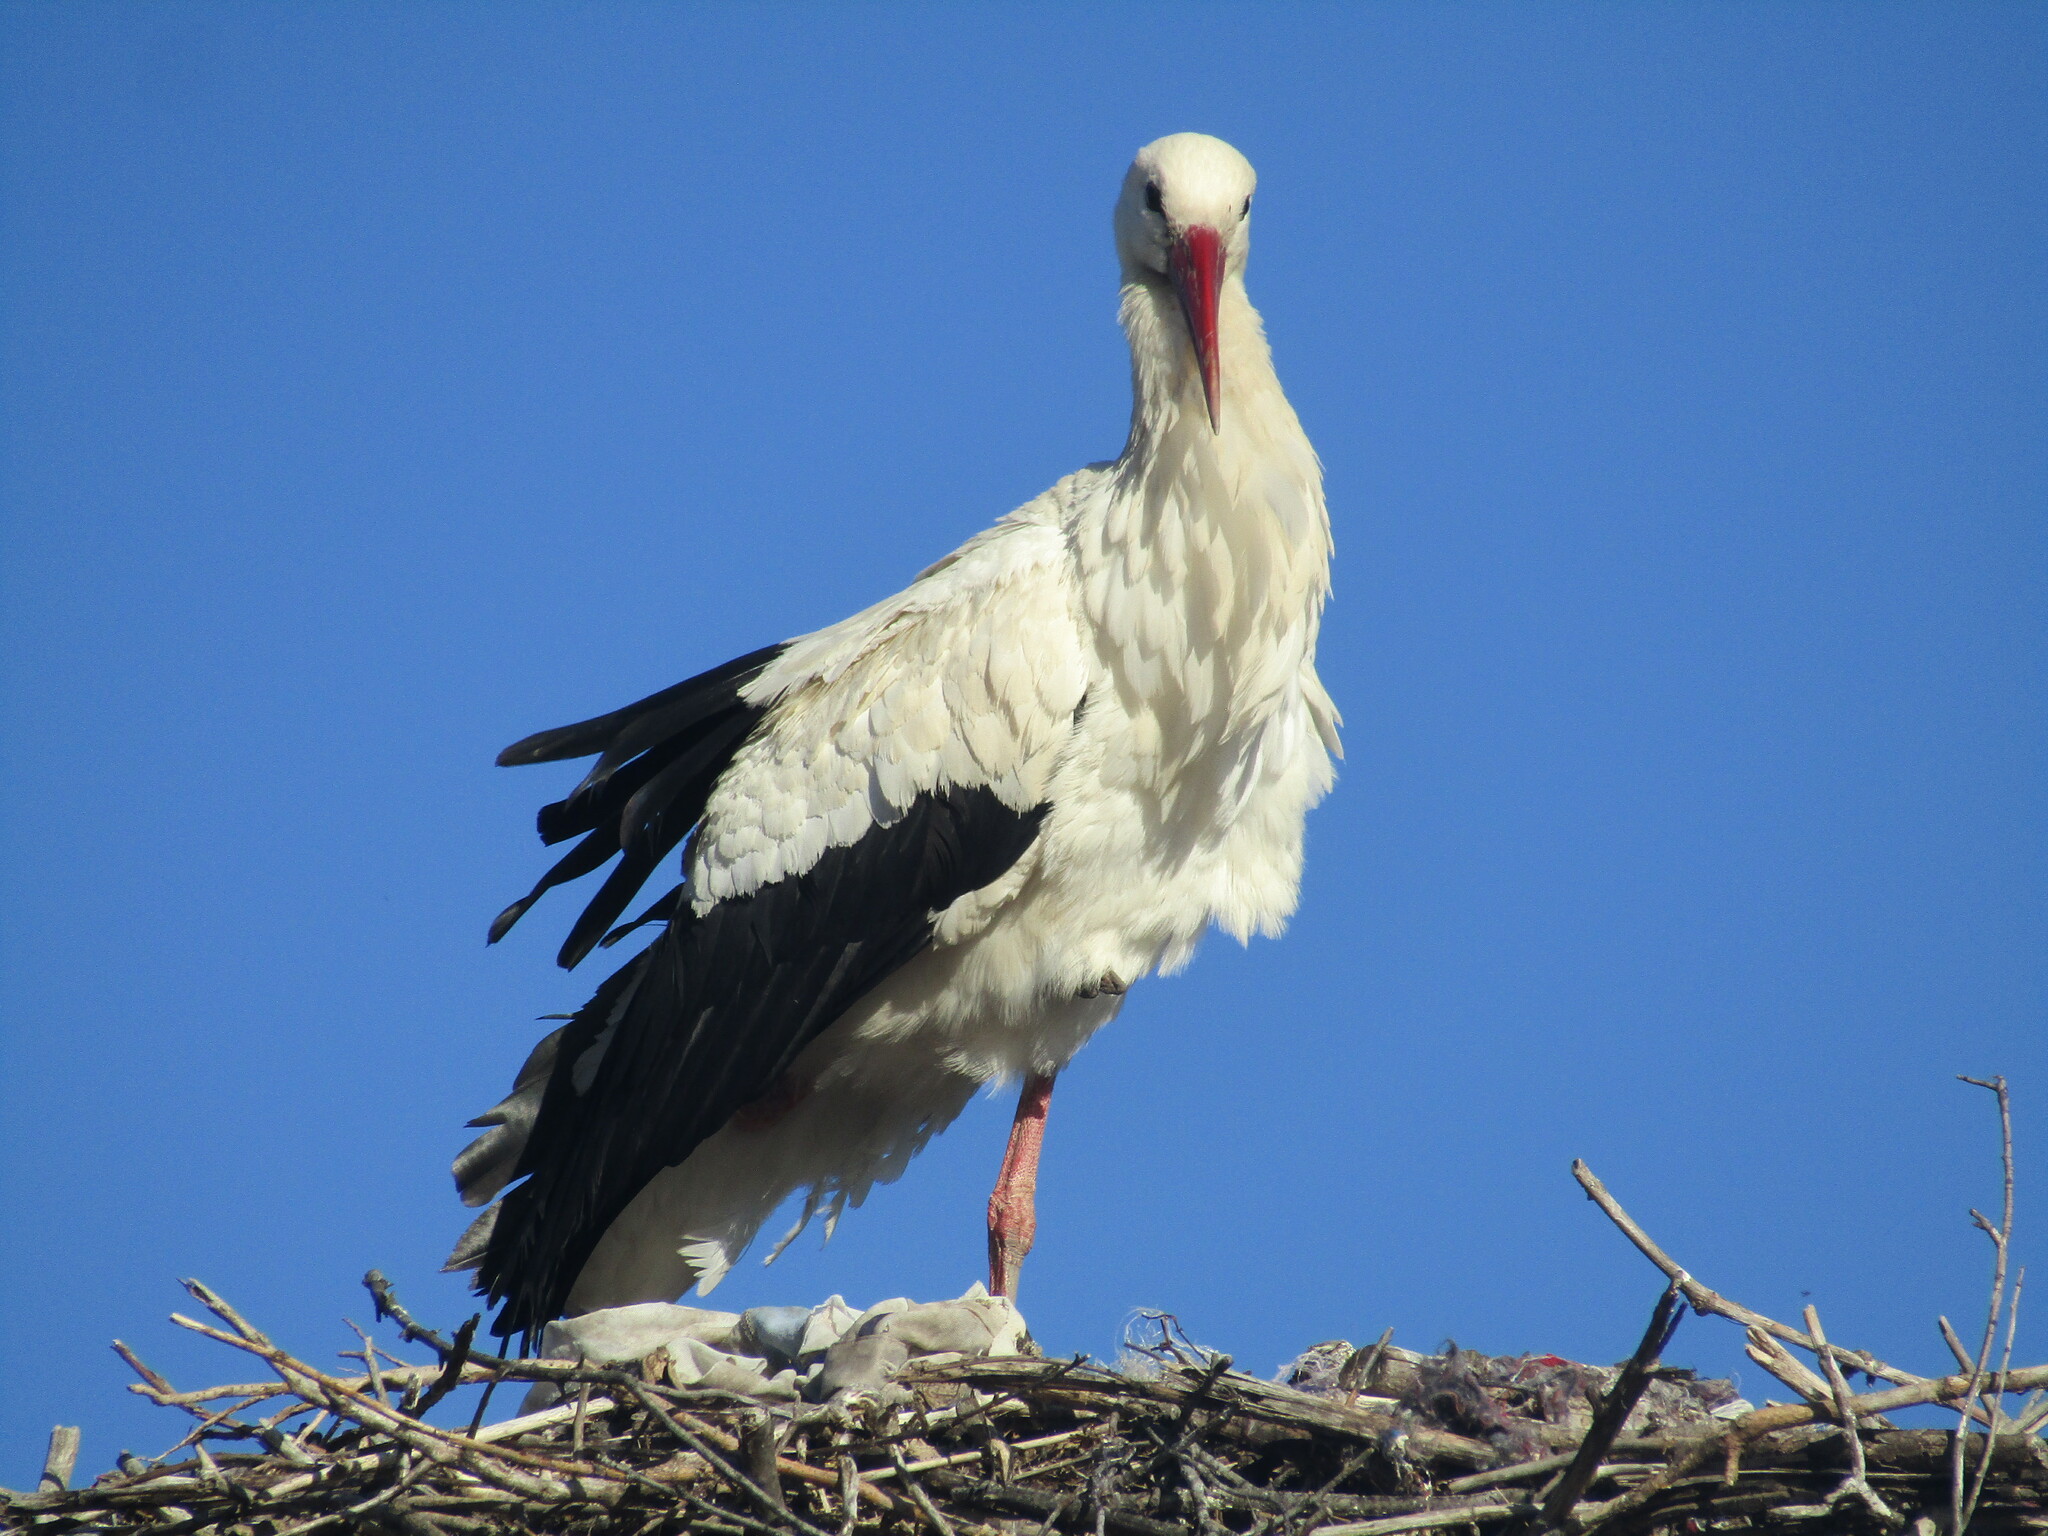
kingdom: Animalia
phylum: Chordata
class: Aves
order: Ciconiiformes
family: Ciconiidae
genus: Ciconia
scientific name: Ciconia ciconia
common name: White stork
